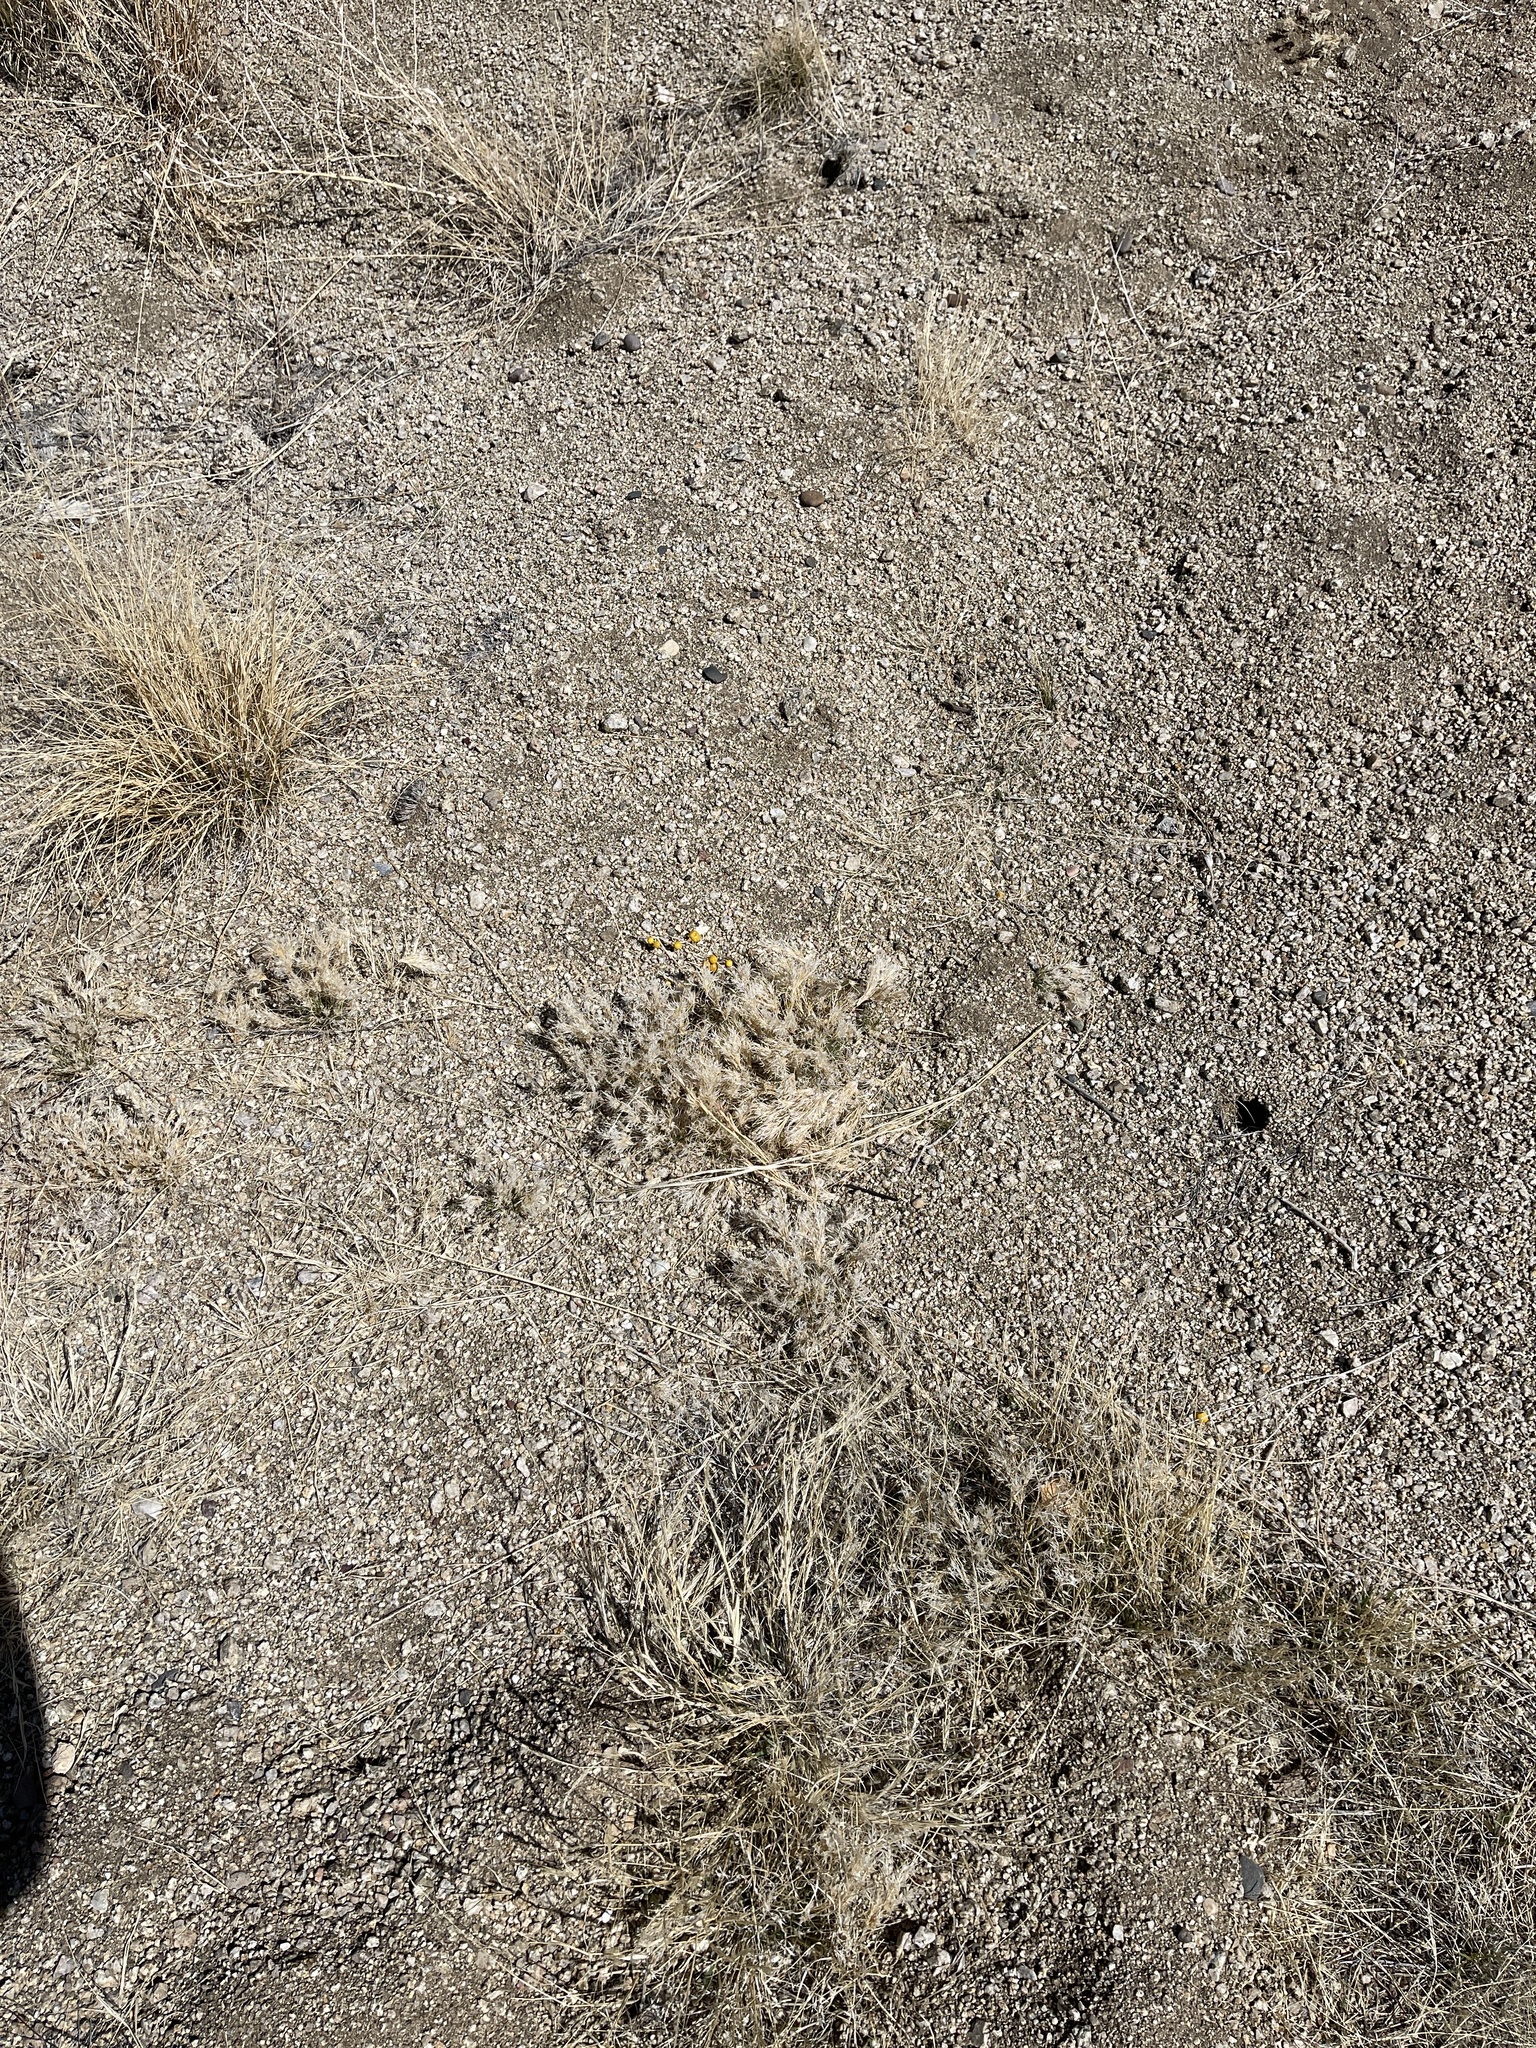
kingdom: Plantae
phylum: Tracheophyta
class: Liliopsida
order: Poales
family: Poaceae
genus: Dasyochloa
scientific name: Dasyochloa pulchella
